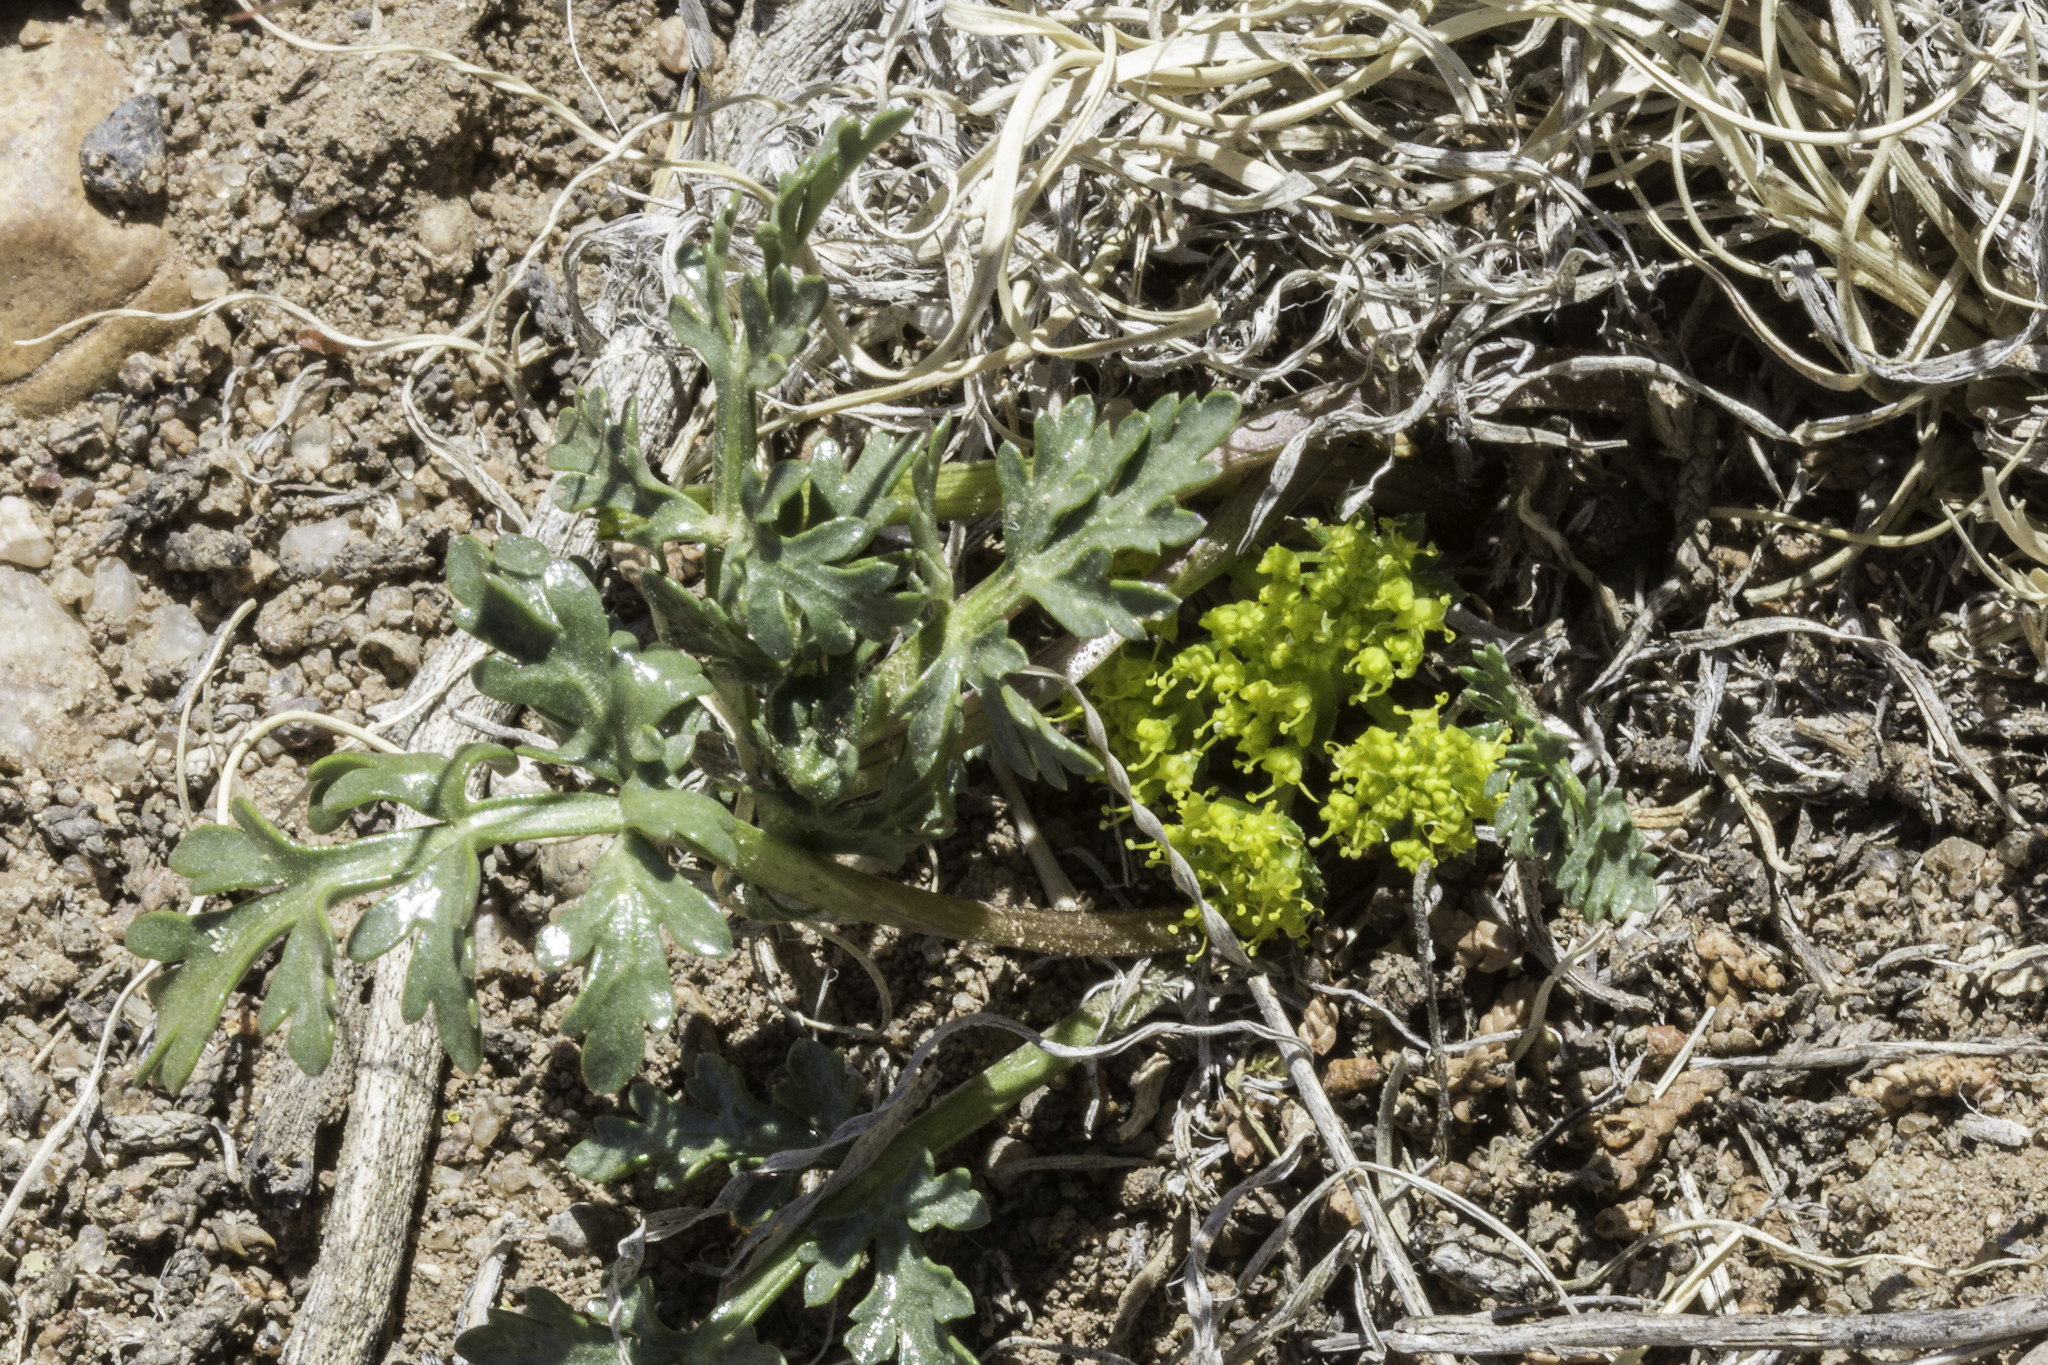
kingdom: Plantae
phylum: Tracheophyta
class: Magnoliopsida
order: Apiales
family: Apiaceae
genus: Cymopterus
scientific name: Cymopterus glomeratus
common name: Plains spring parsley
